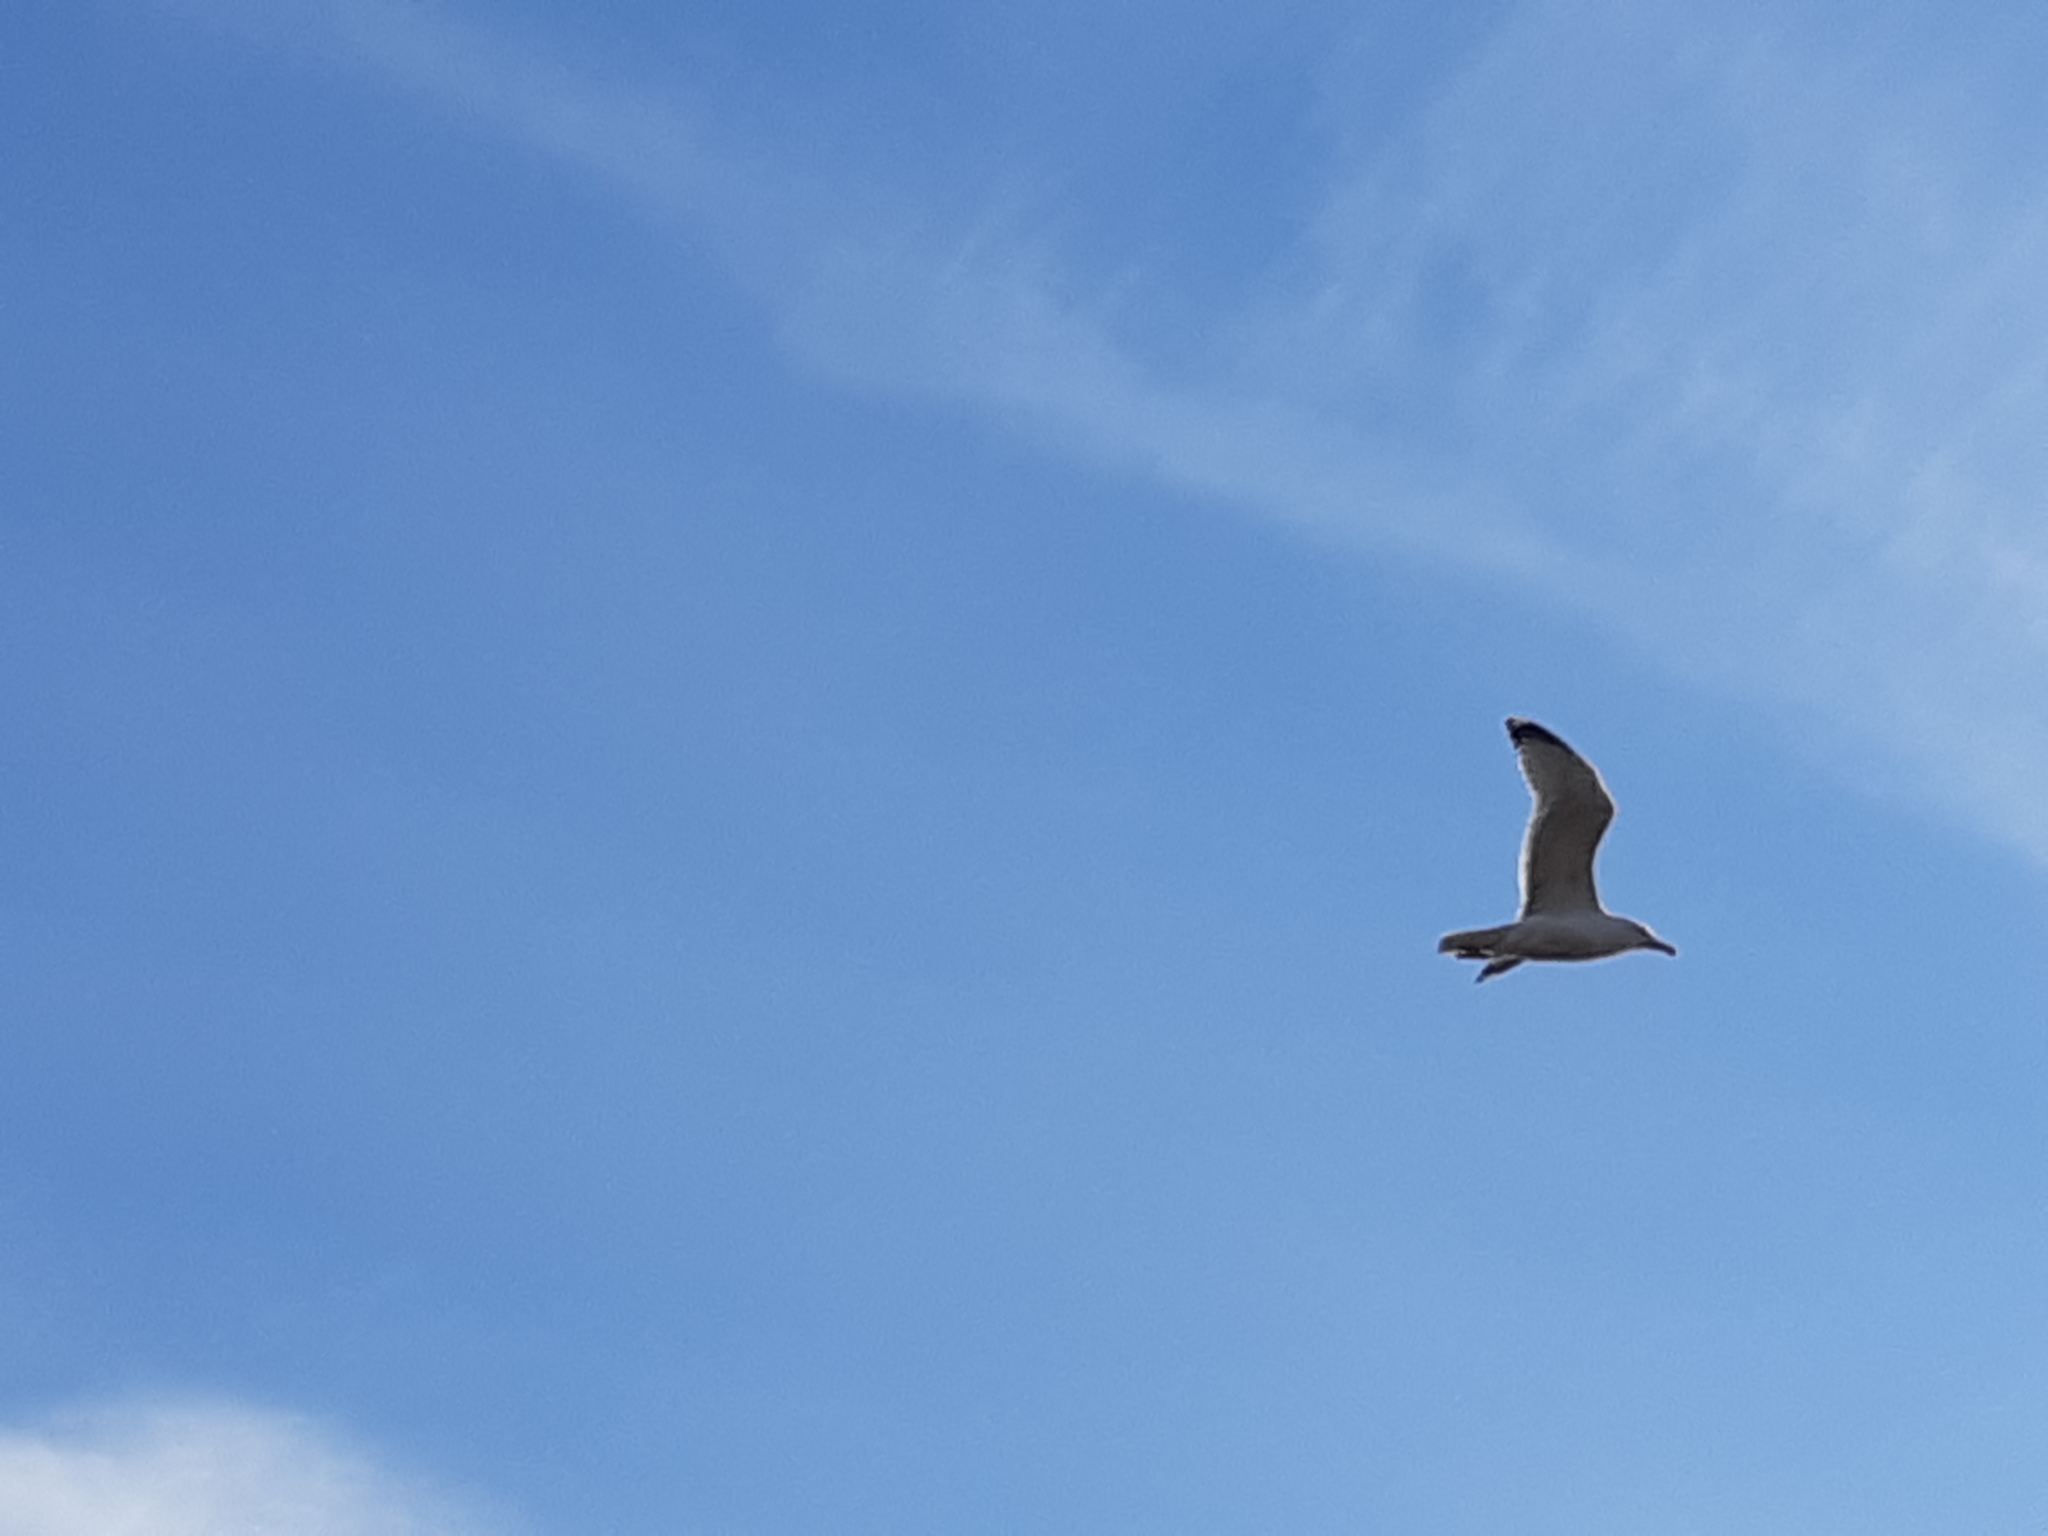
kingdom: Animalia
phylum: Chordata
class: Aves
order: Charadriiformes
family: Laridae
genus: Larus
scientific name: Larus argentatus
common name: Herring gull
